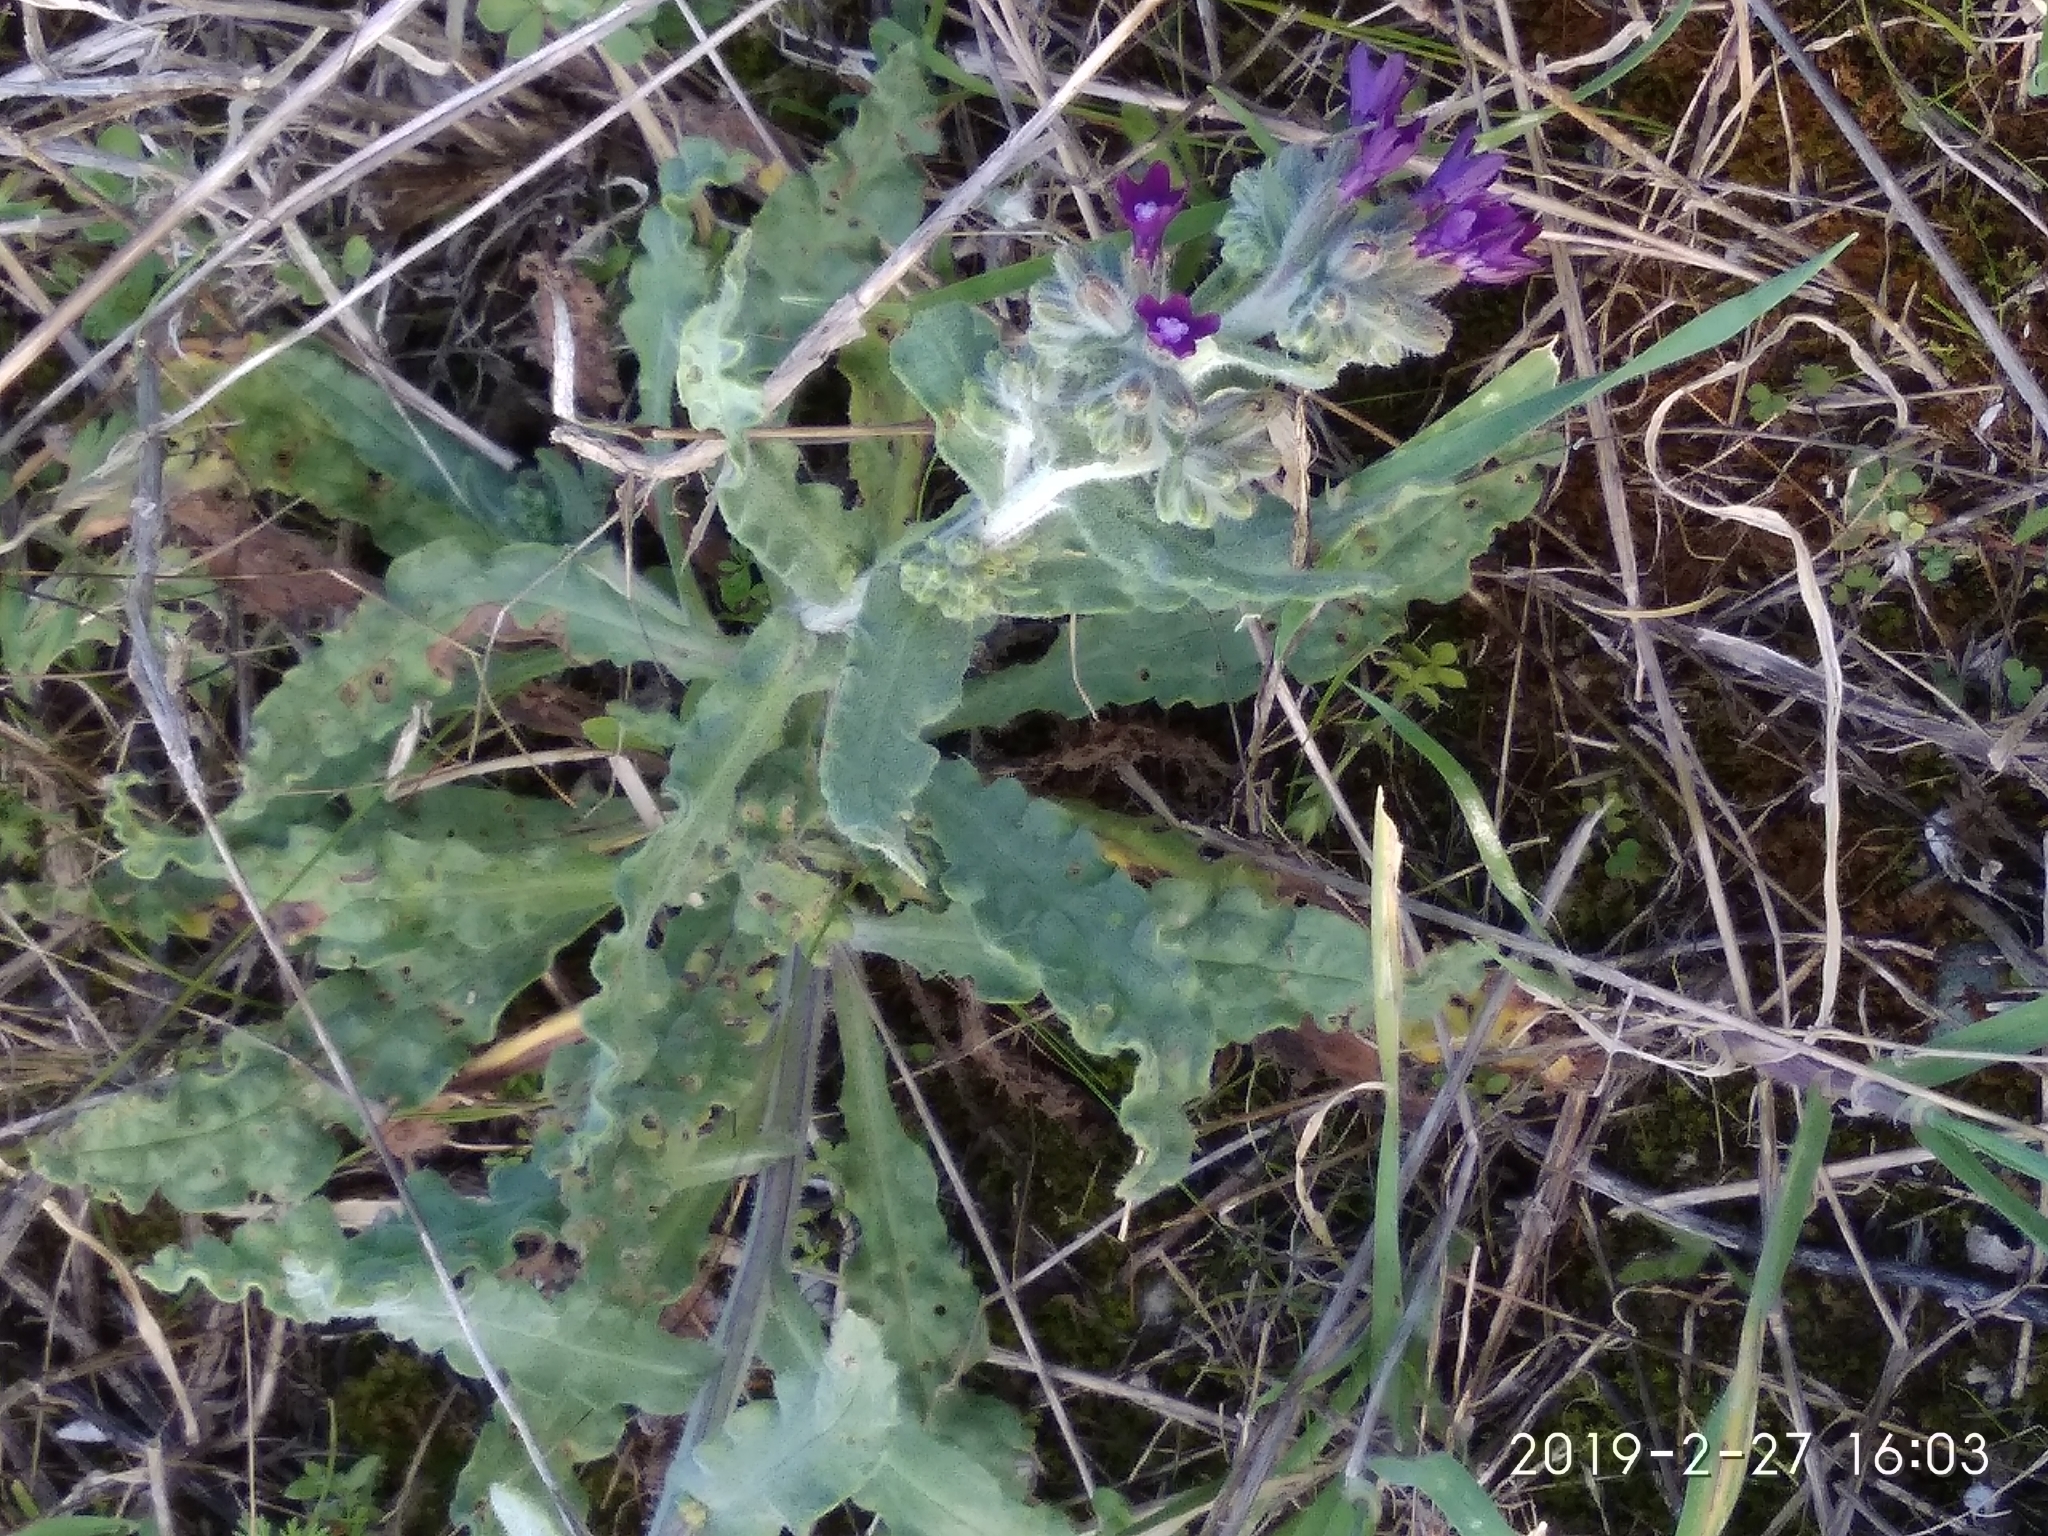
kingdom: Plantae
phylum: Tracheophyta
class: Magnoliopsida
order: Boraginales
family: Boraginaceae
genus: Anchusa
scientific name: Anchusa undulata
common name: Undulate alkanet
